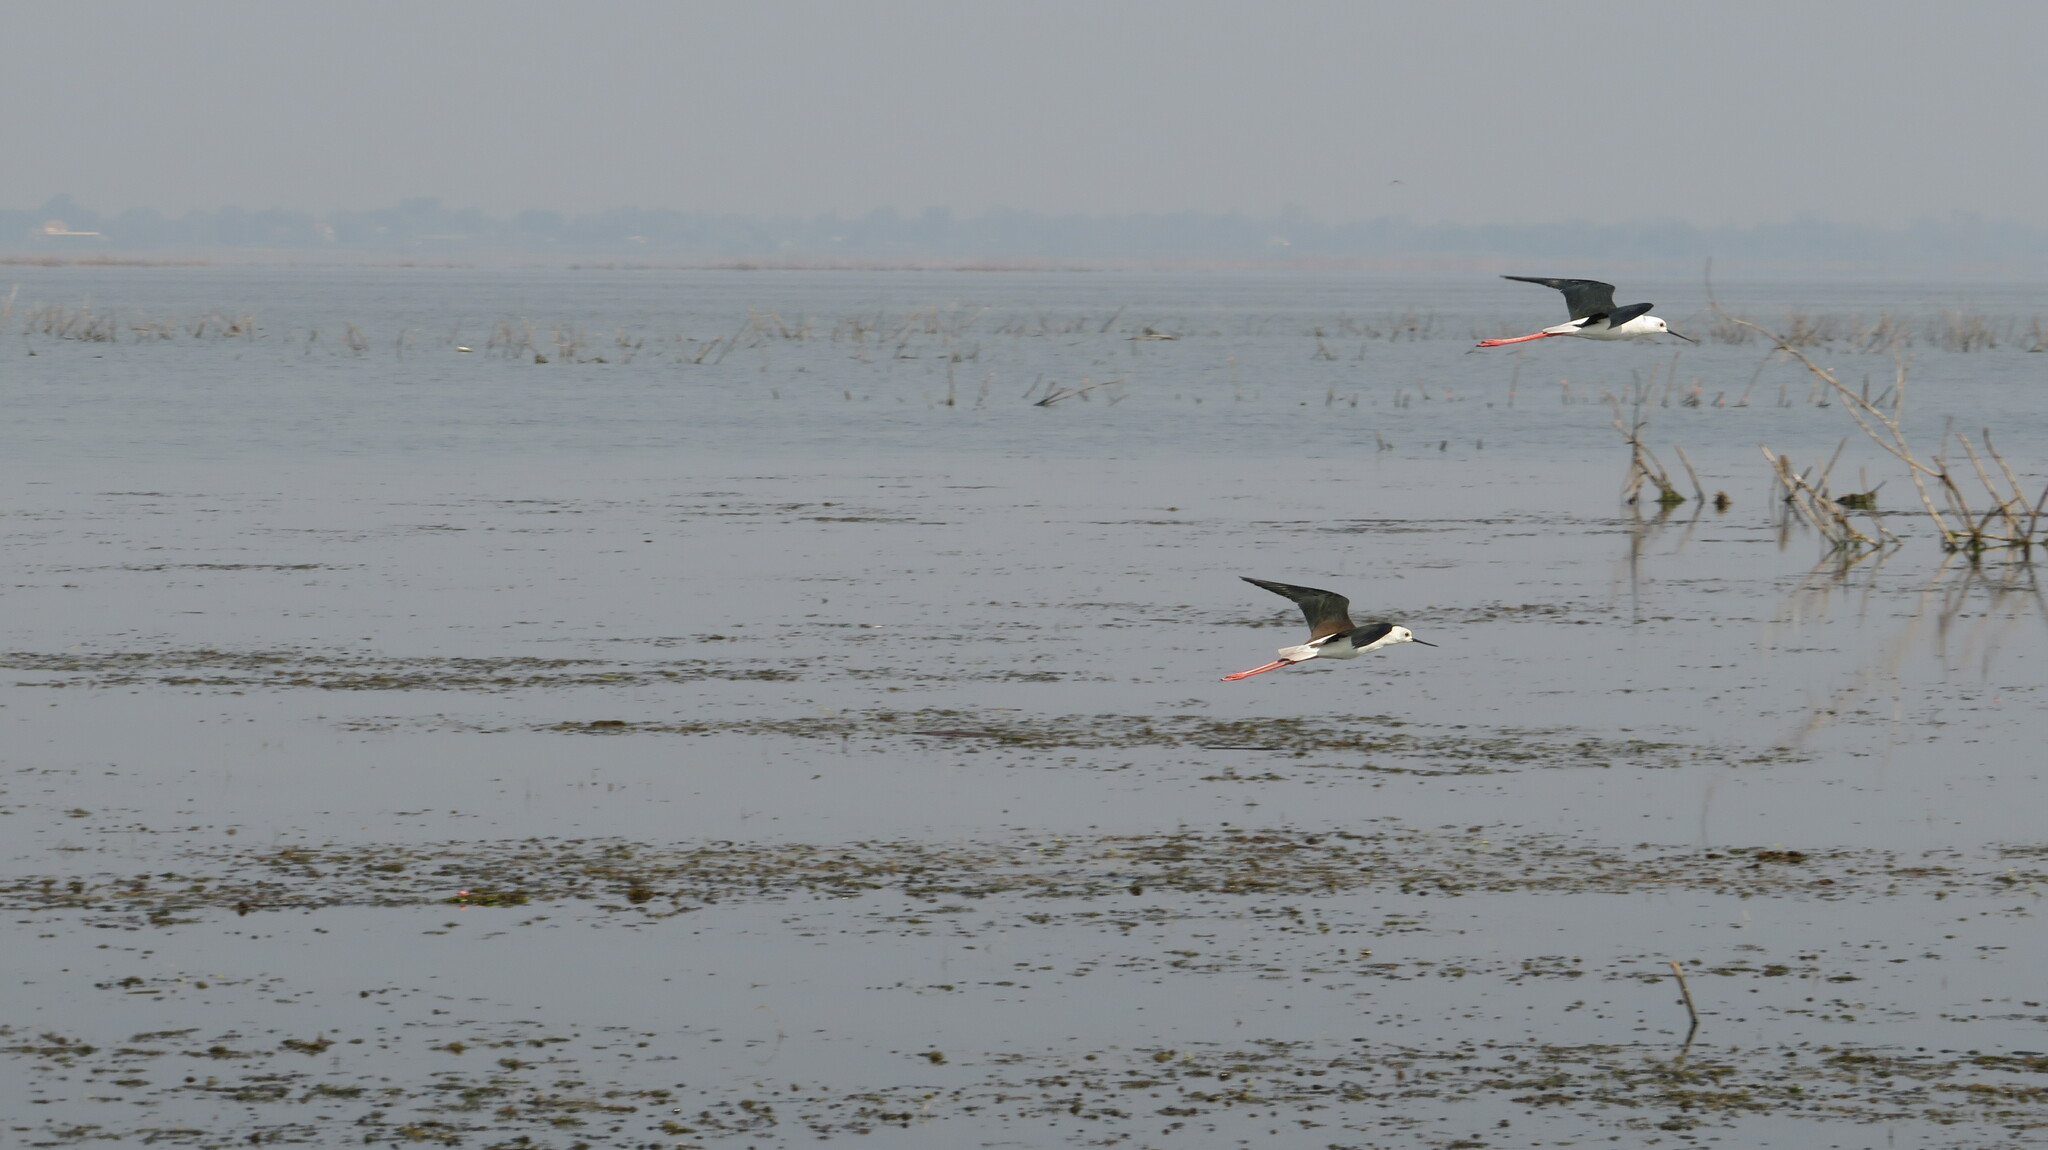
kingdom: Animalia
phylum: Chordata
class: Aves
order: Charadriiformes
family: Recurvirostridae
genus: Himantopus
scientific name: Himantopus himantopus
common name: Black-winged stilt
